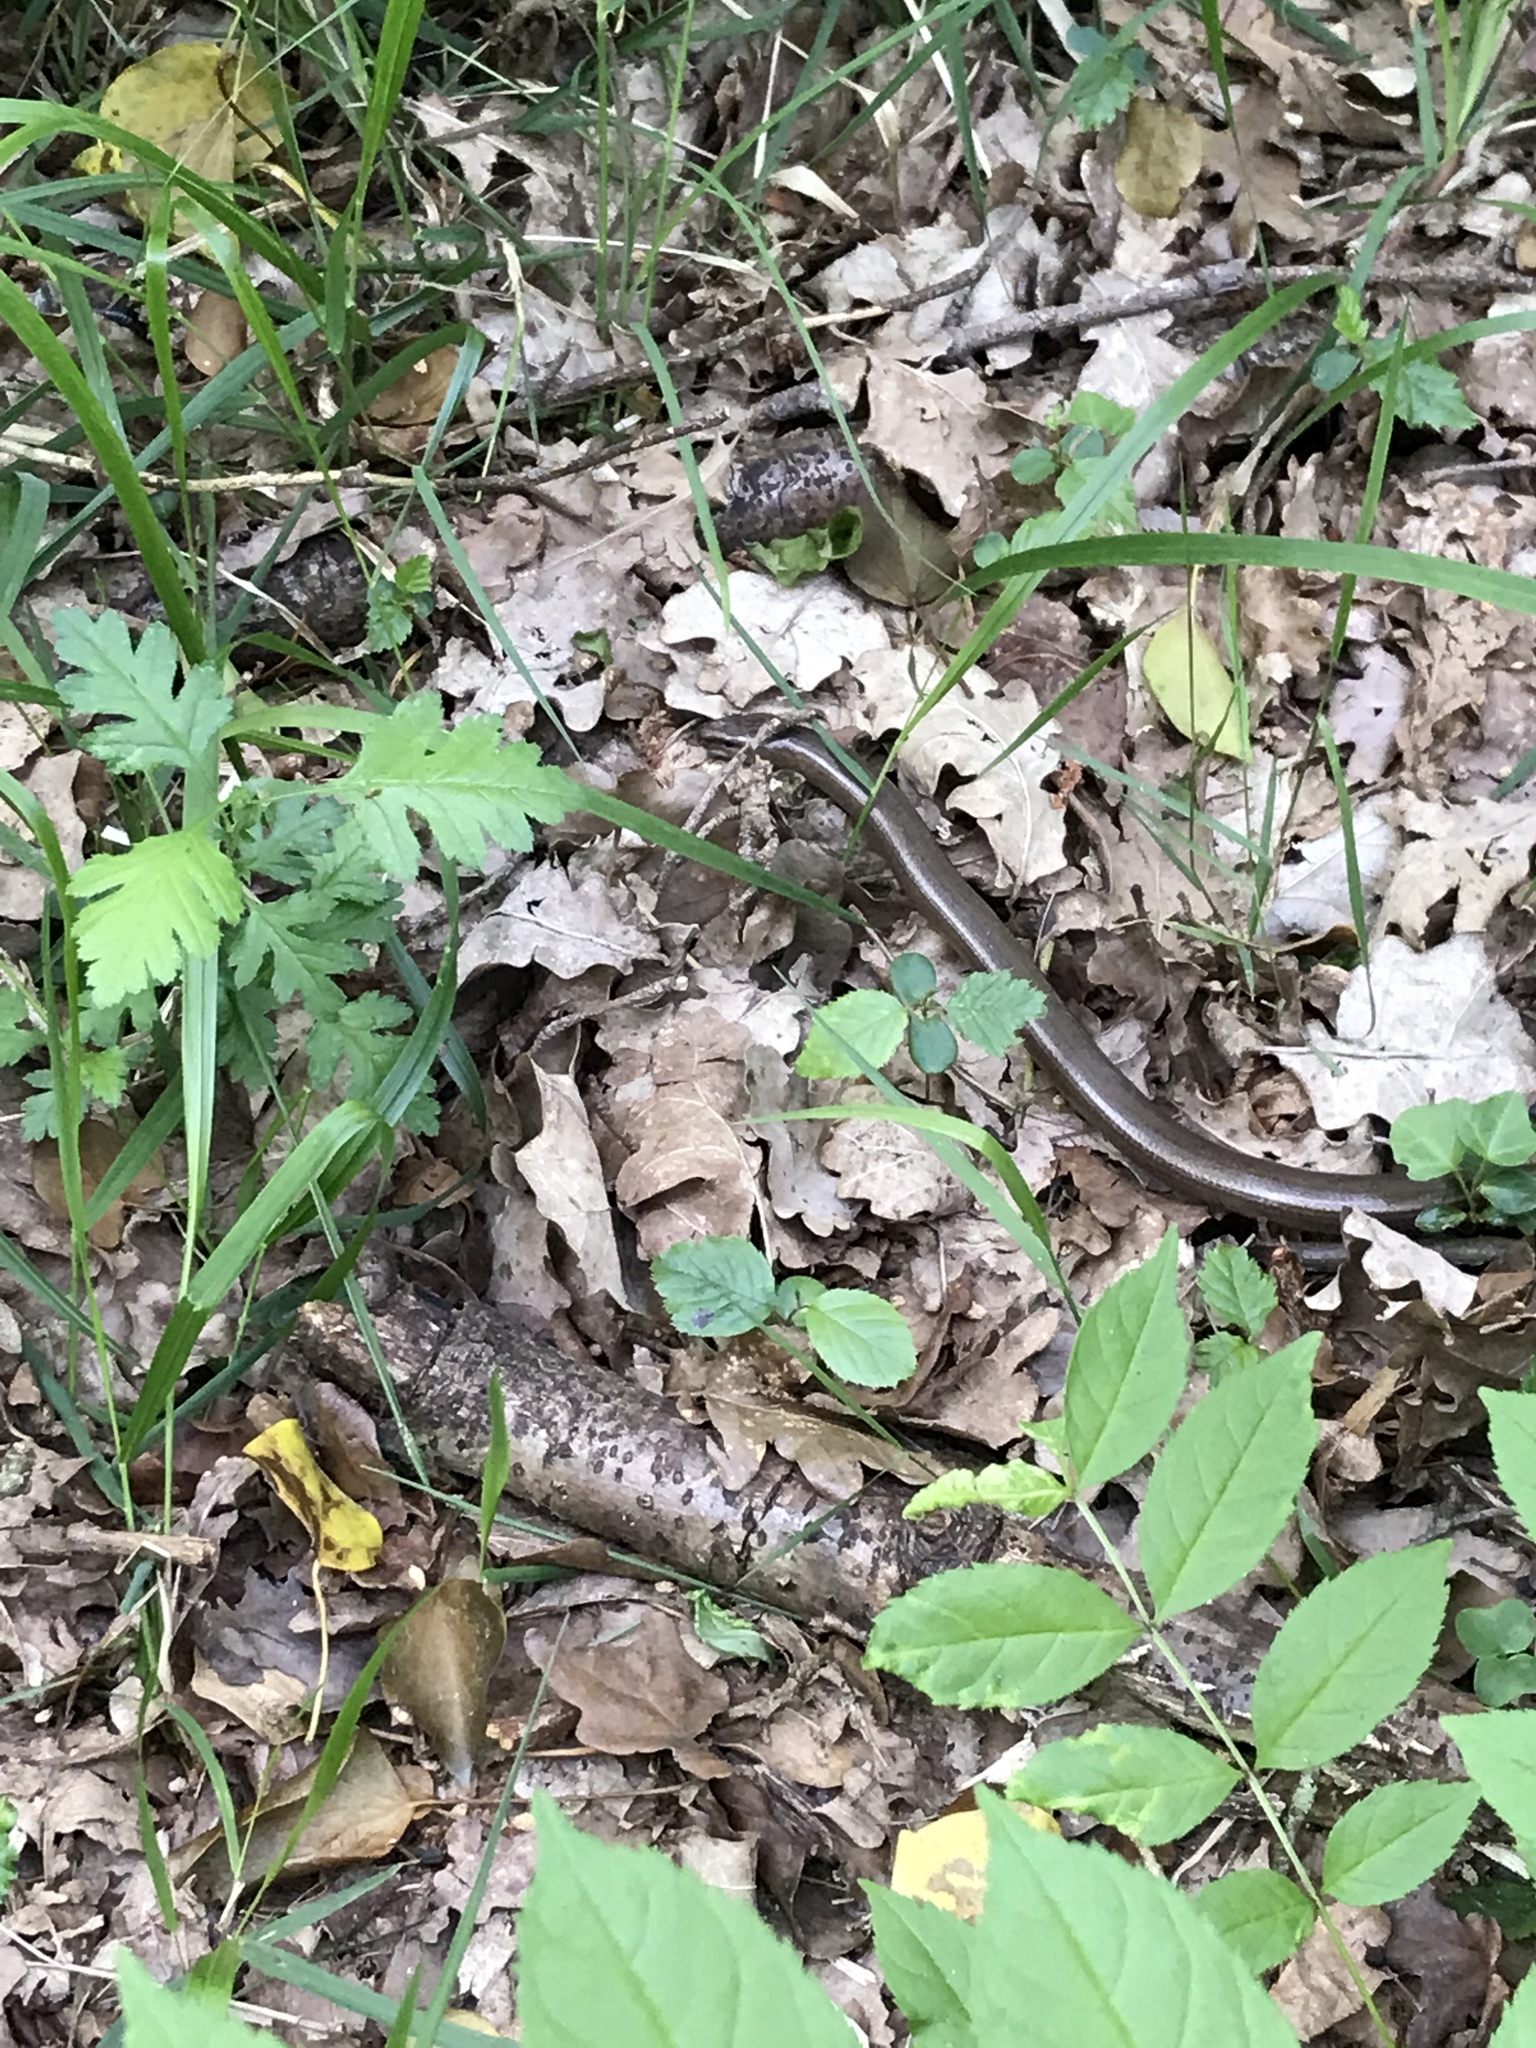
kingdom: Animalia
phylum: Chordata
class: Squamata
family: Anguidae
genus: Anguis
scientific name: Anguis fragilis
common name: Slow worm
